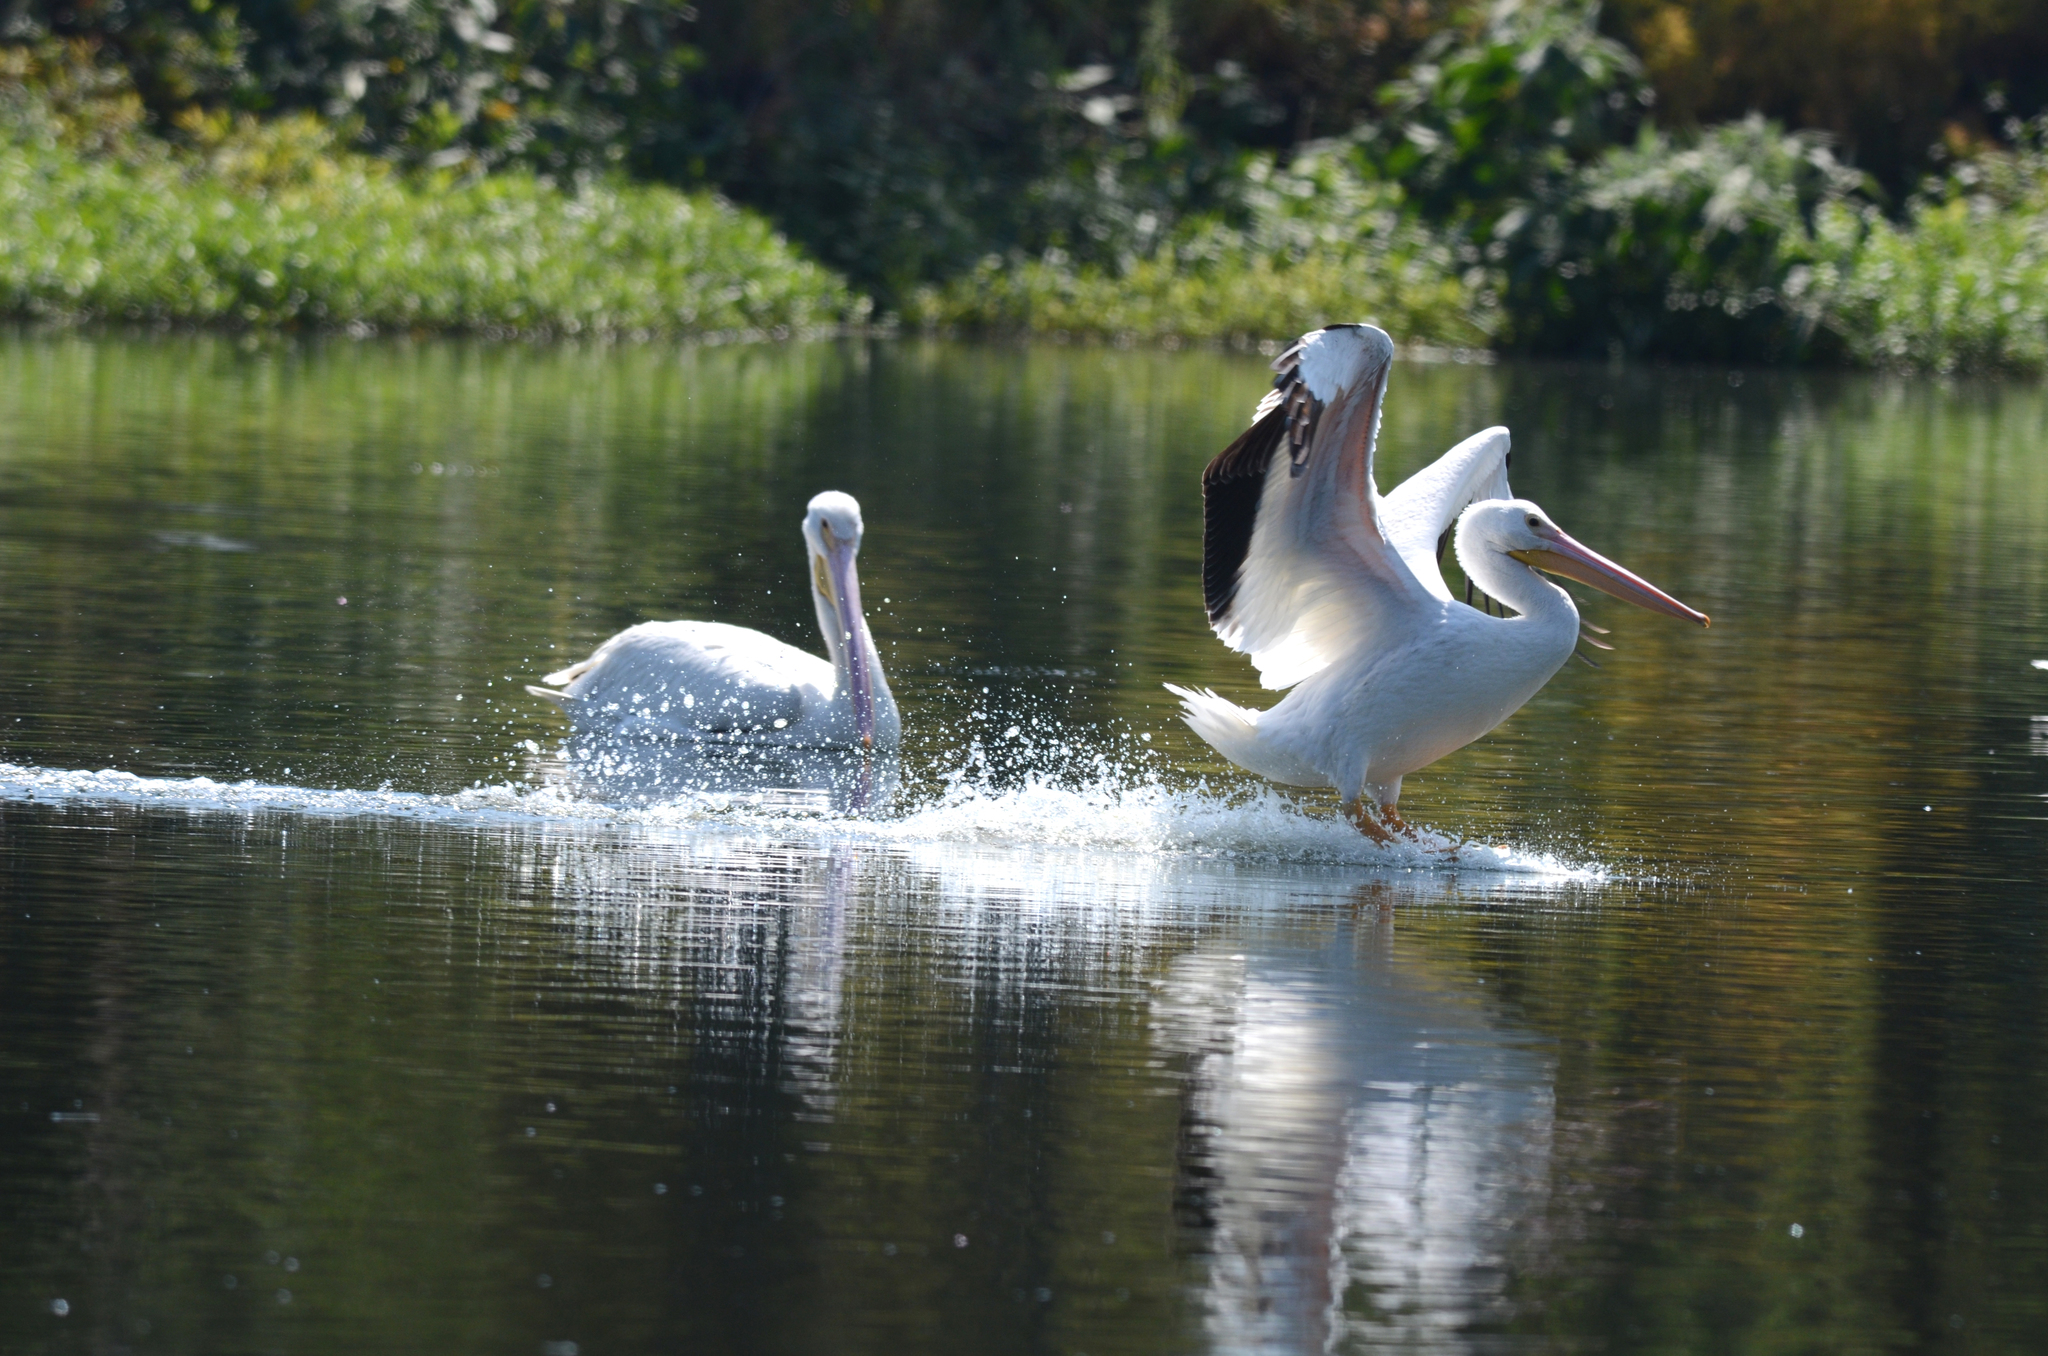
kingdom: Animalia
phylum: Chordata
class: Aves
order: Pelecaniformes
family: Pelecanidae
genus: Pelecanus
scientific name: Pelecanus erythrorhynchos
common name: American white pelican
